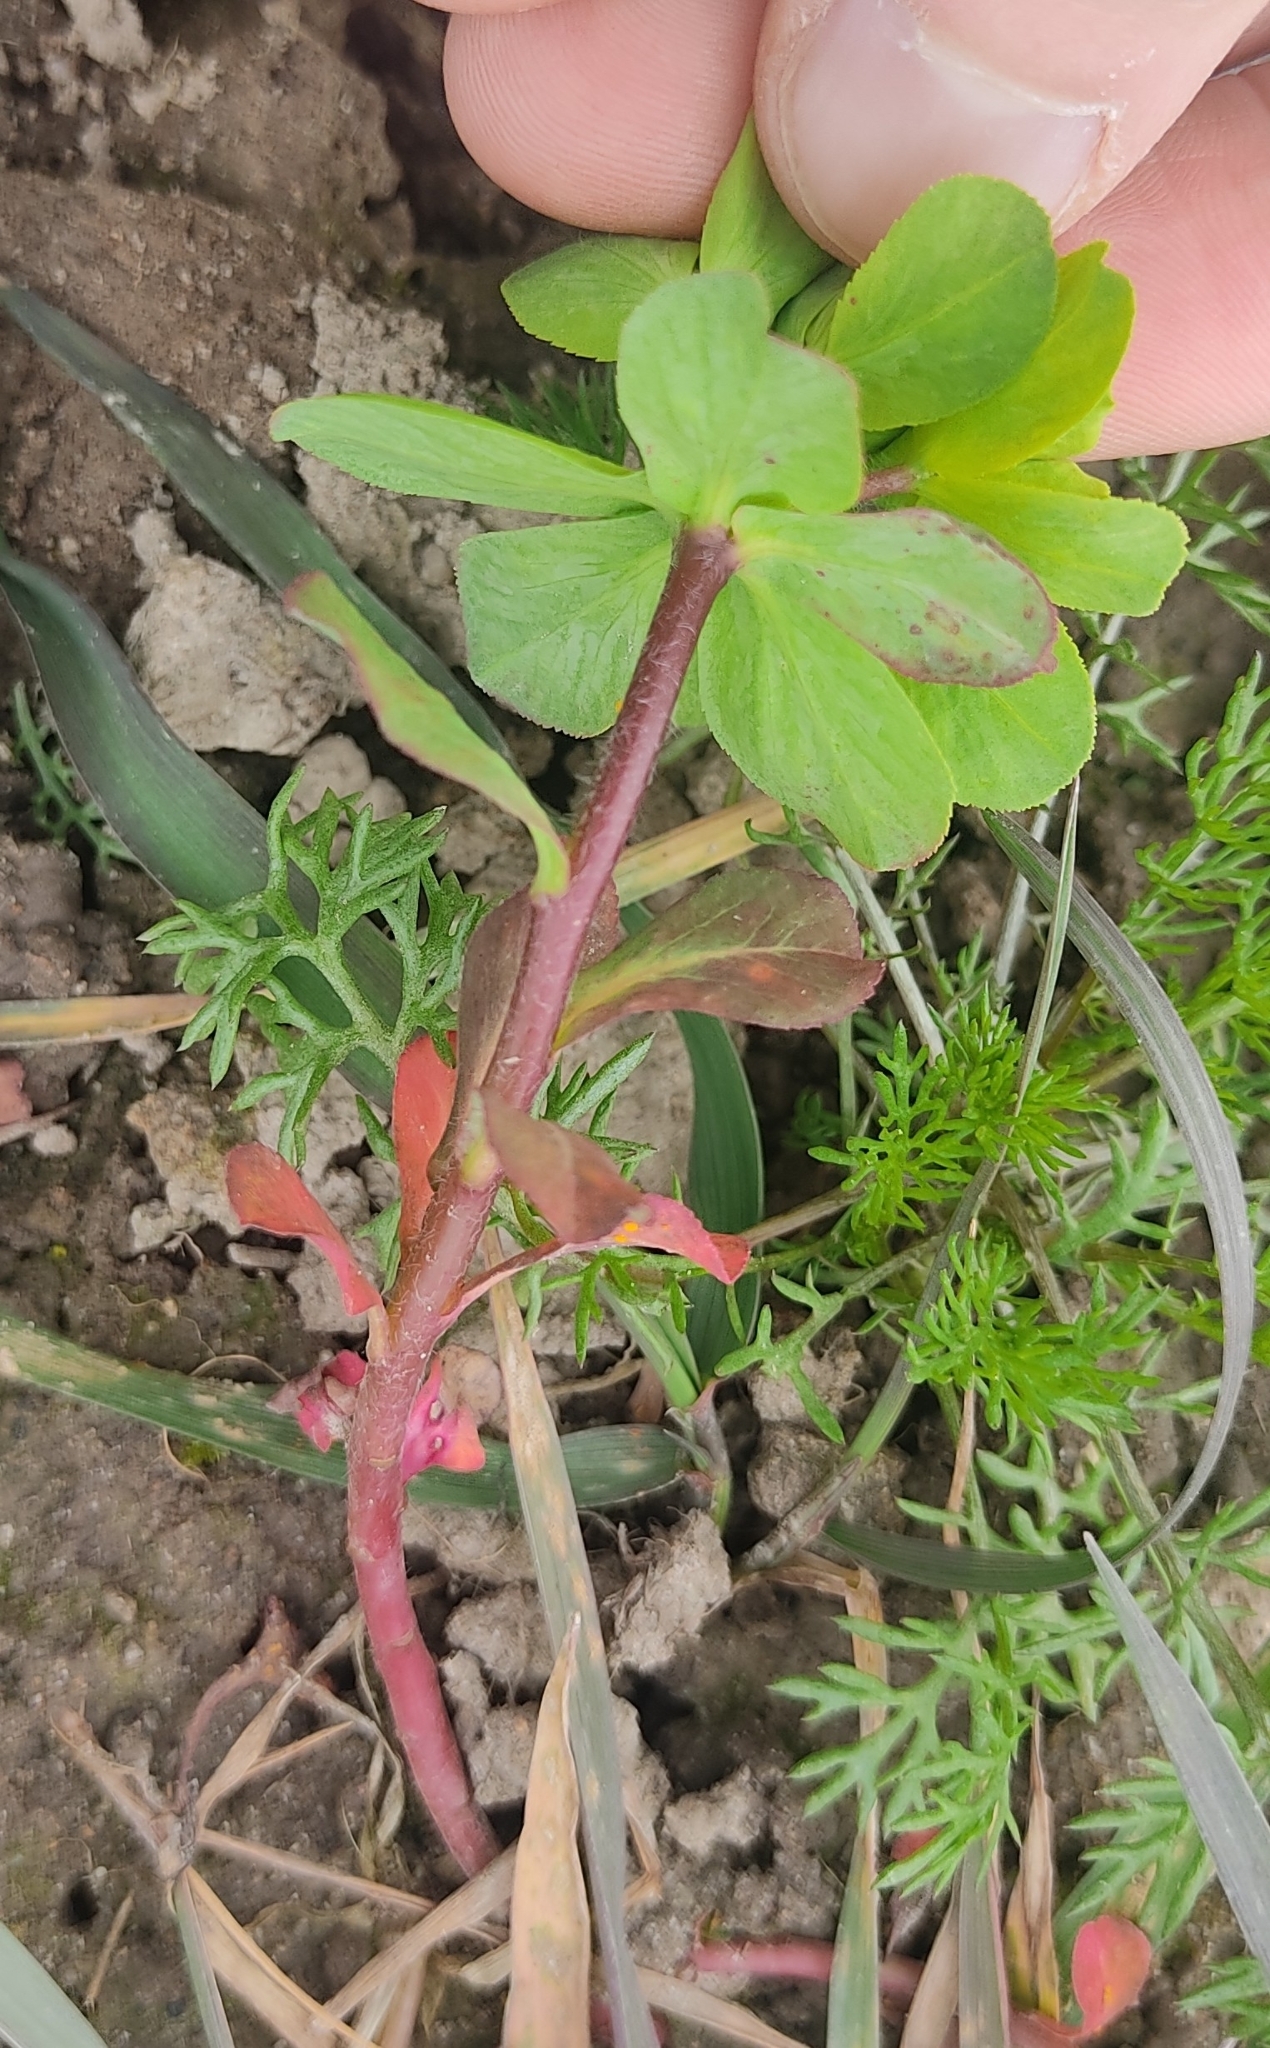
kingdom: Plantae
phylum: Tracheophyta
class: Magnoliopsida
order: Malpighiales
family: Euphorbiaceae
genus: Euphorbia
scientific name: Euphorbia helioscopia
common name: Sun spurge
